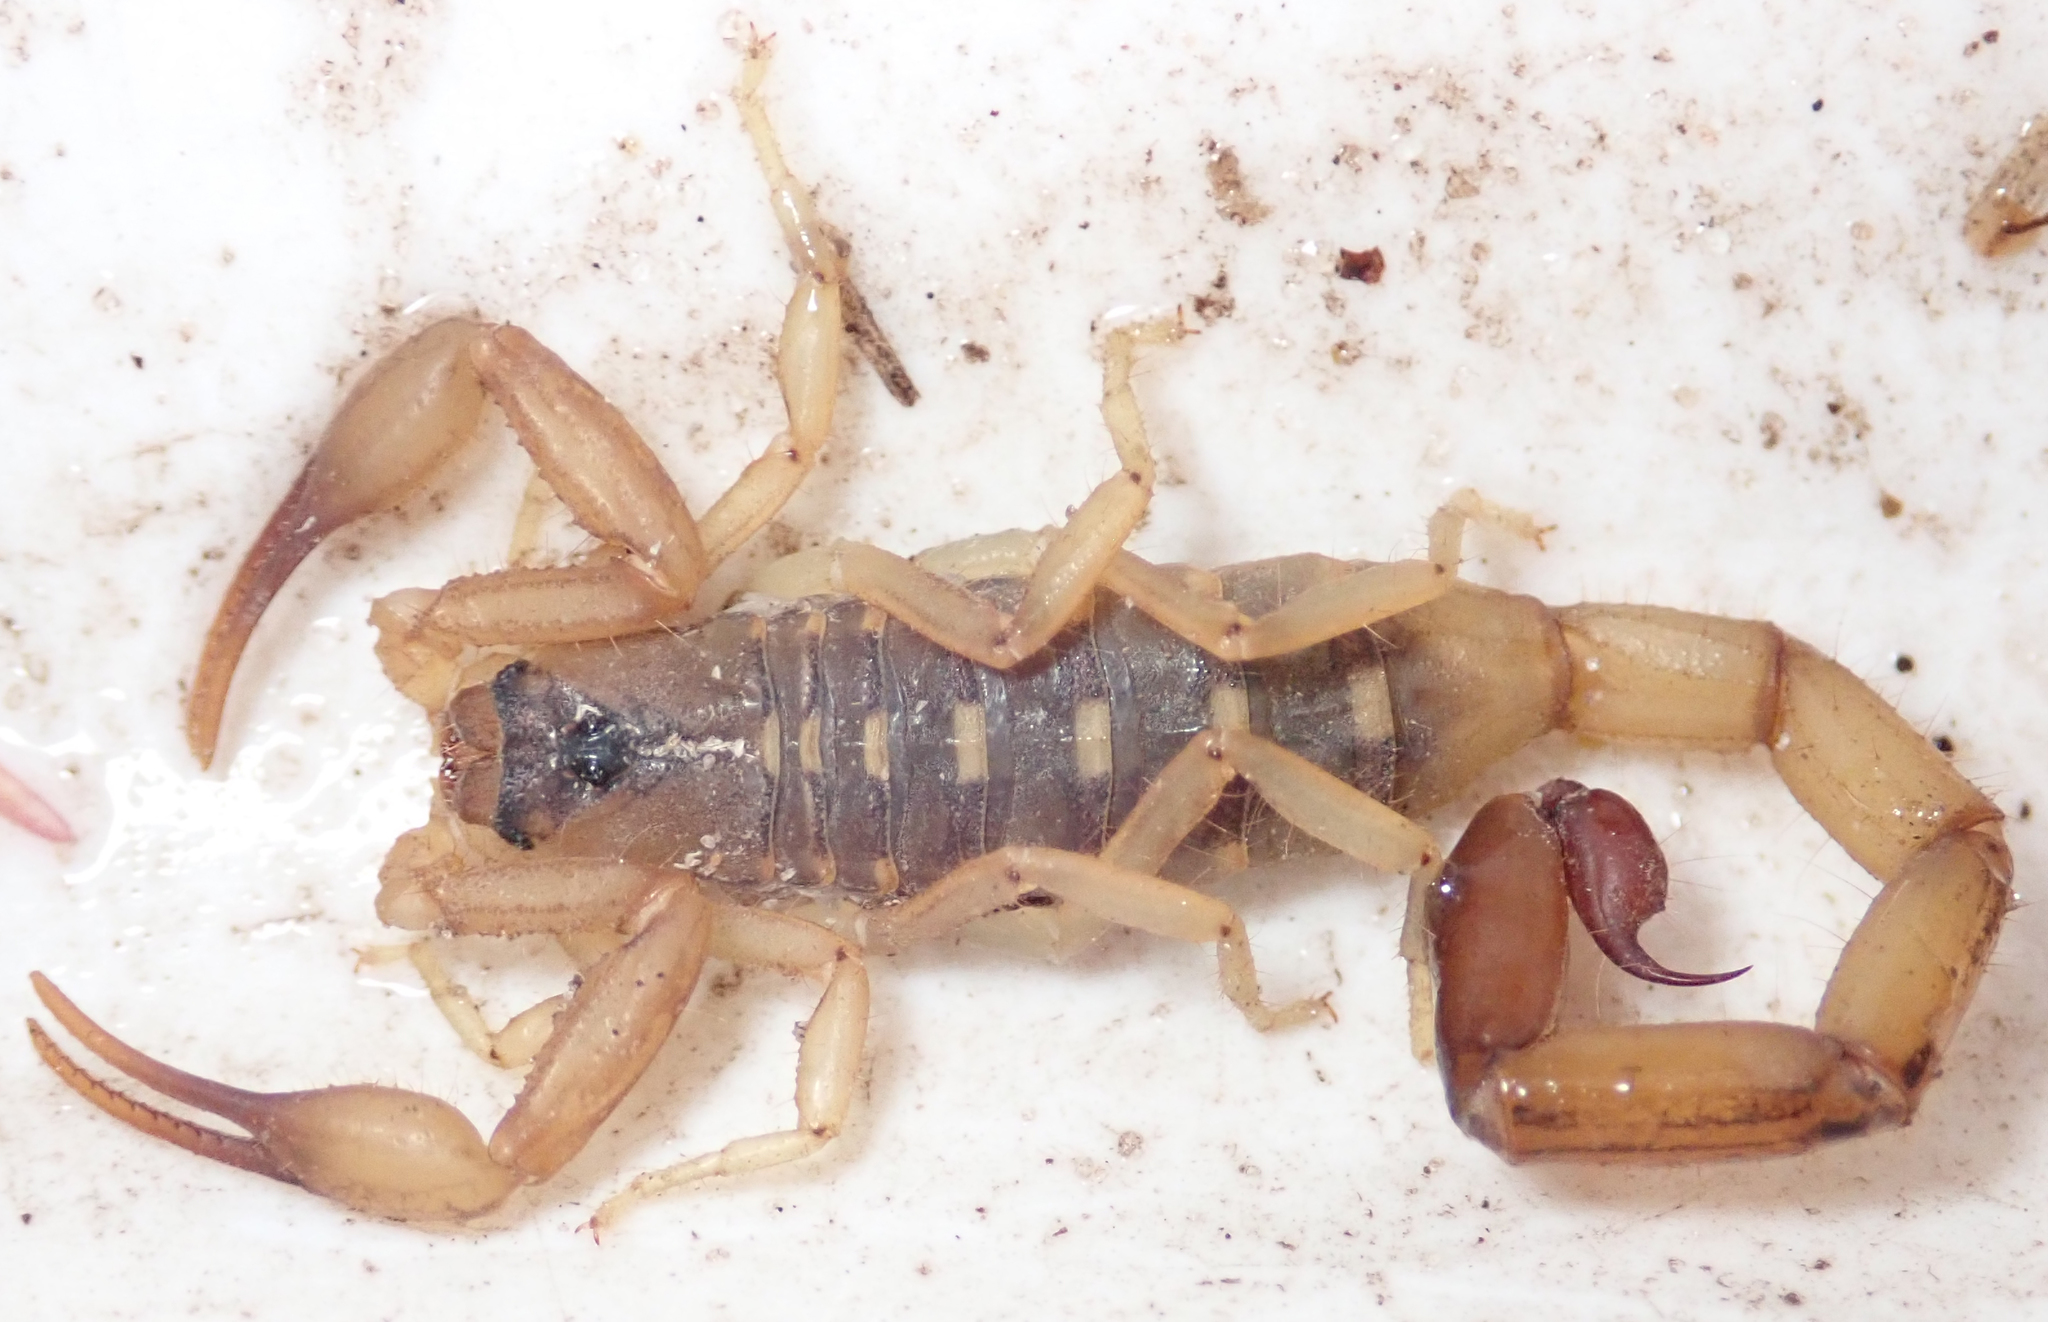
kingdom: Animalia
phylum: Arthropoda
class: Arachnida
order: Scorpiones
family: Buthidae
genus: Uroplectes
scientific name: Uroplectes vittatus
